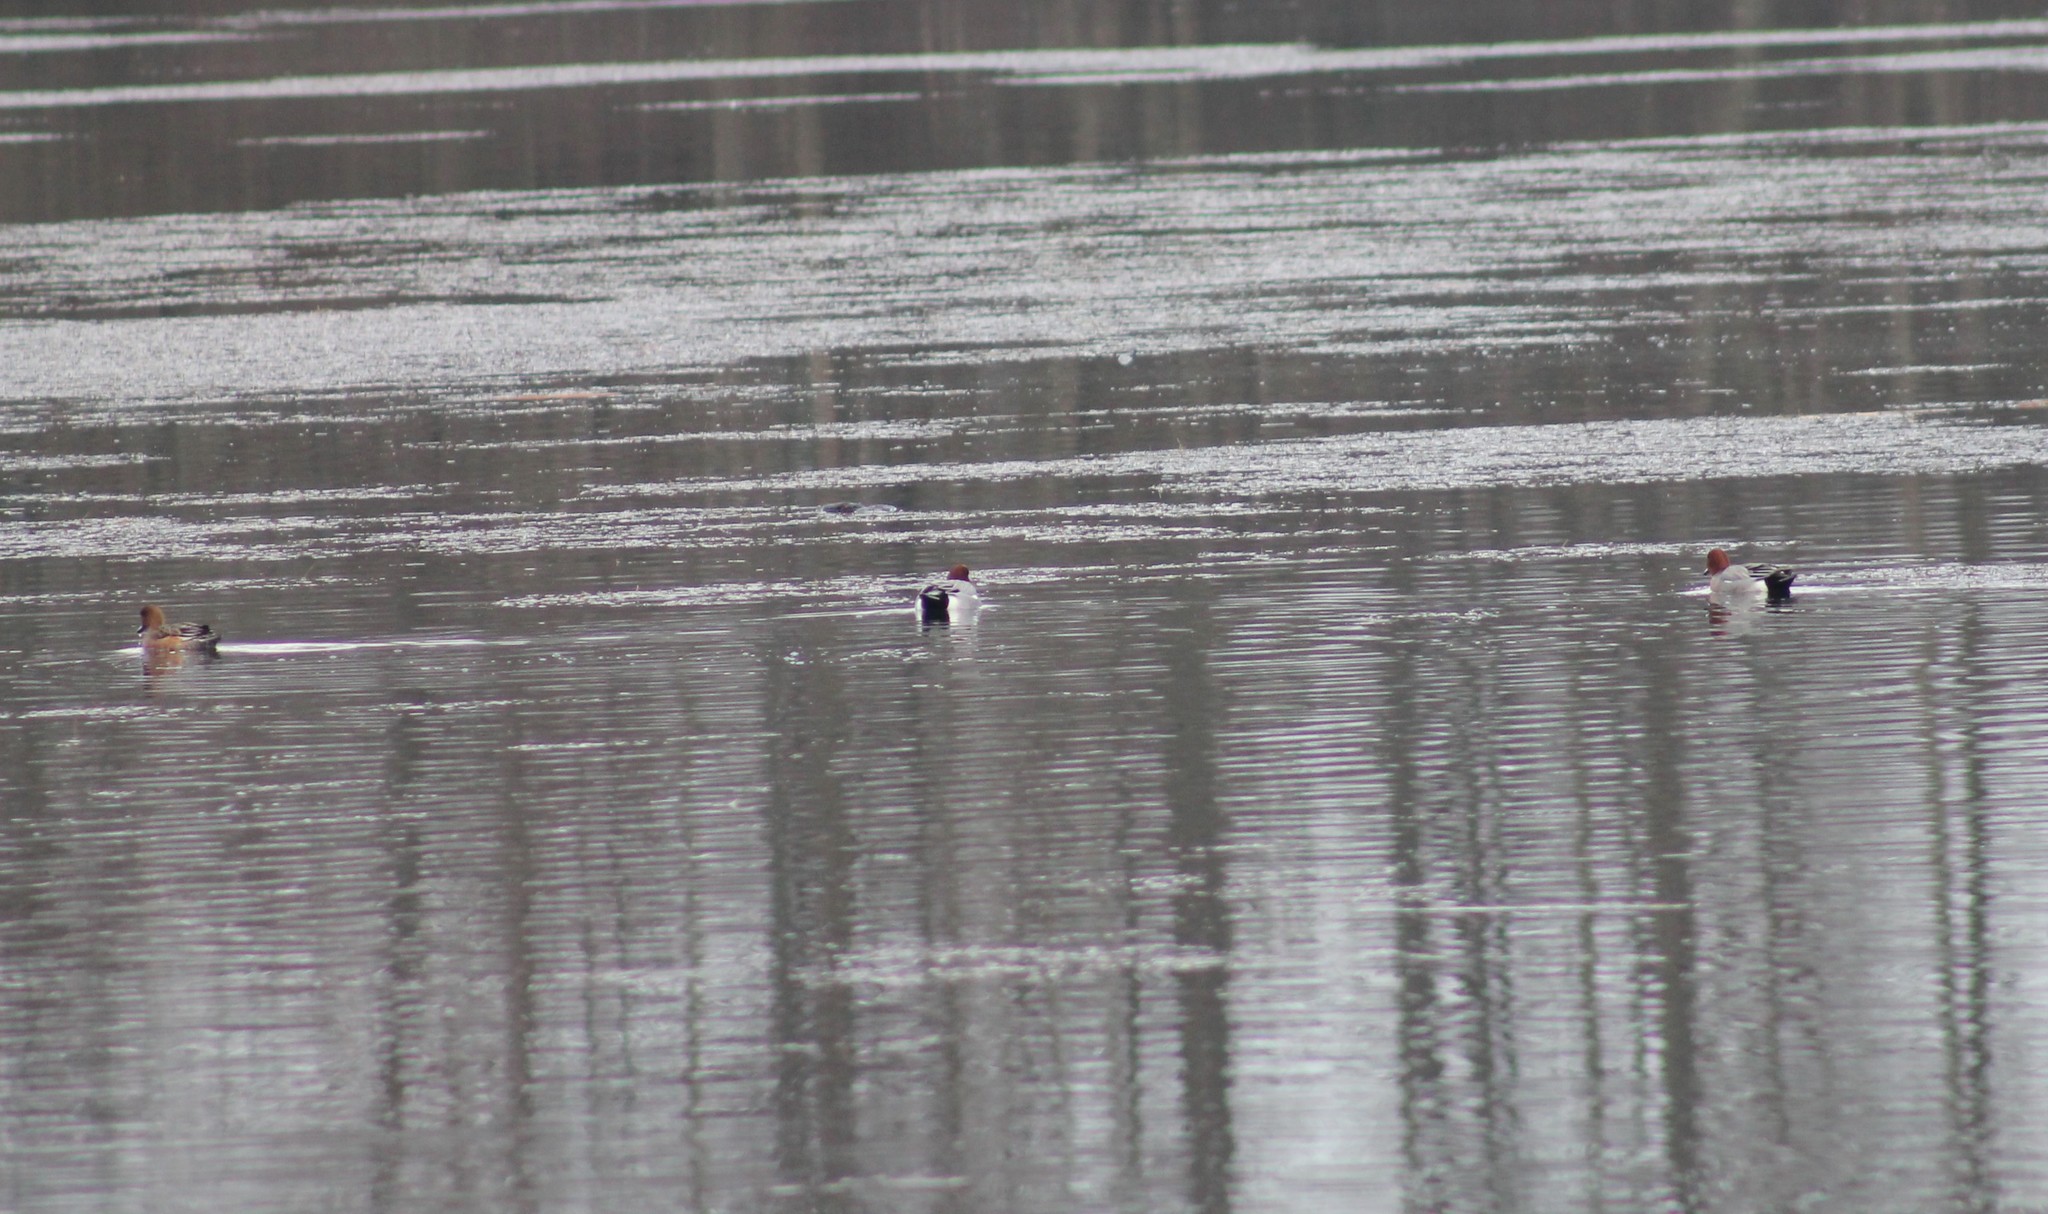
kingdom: Animalia
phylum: Chordata
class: Aves
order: Anseriformes
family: Anatidae
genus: Mareca
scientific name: Mareca penelope
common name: Eurasian wigeon
